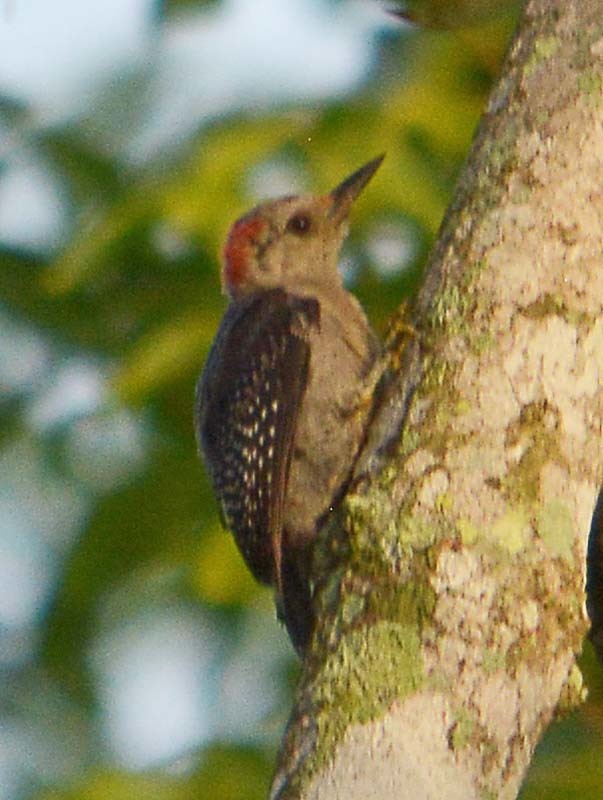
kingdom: Animalia
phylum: Chordata
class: Aves
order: Piciformes
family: Picidae
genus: Melanerpes
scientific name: Melanerpes pygmaeus
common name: Yucatan woodpecker
